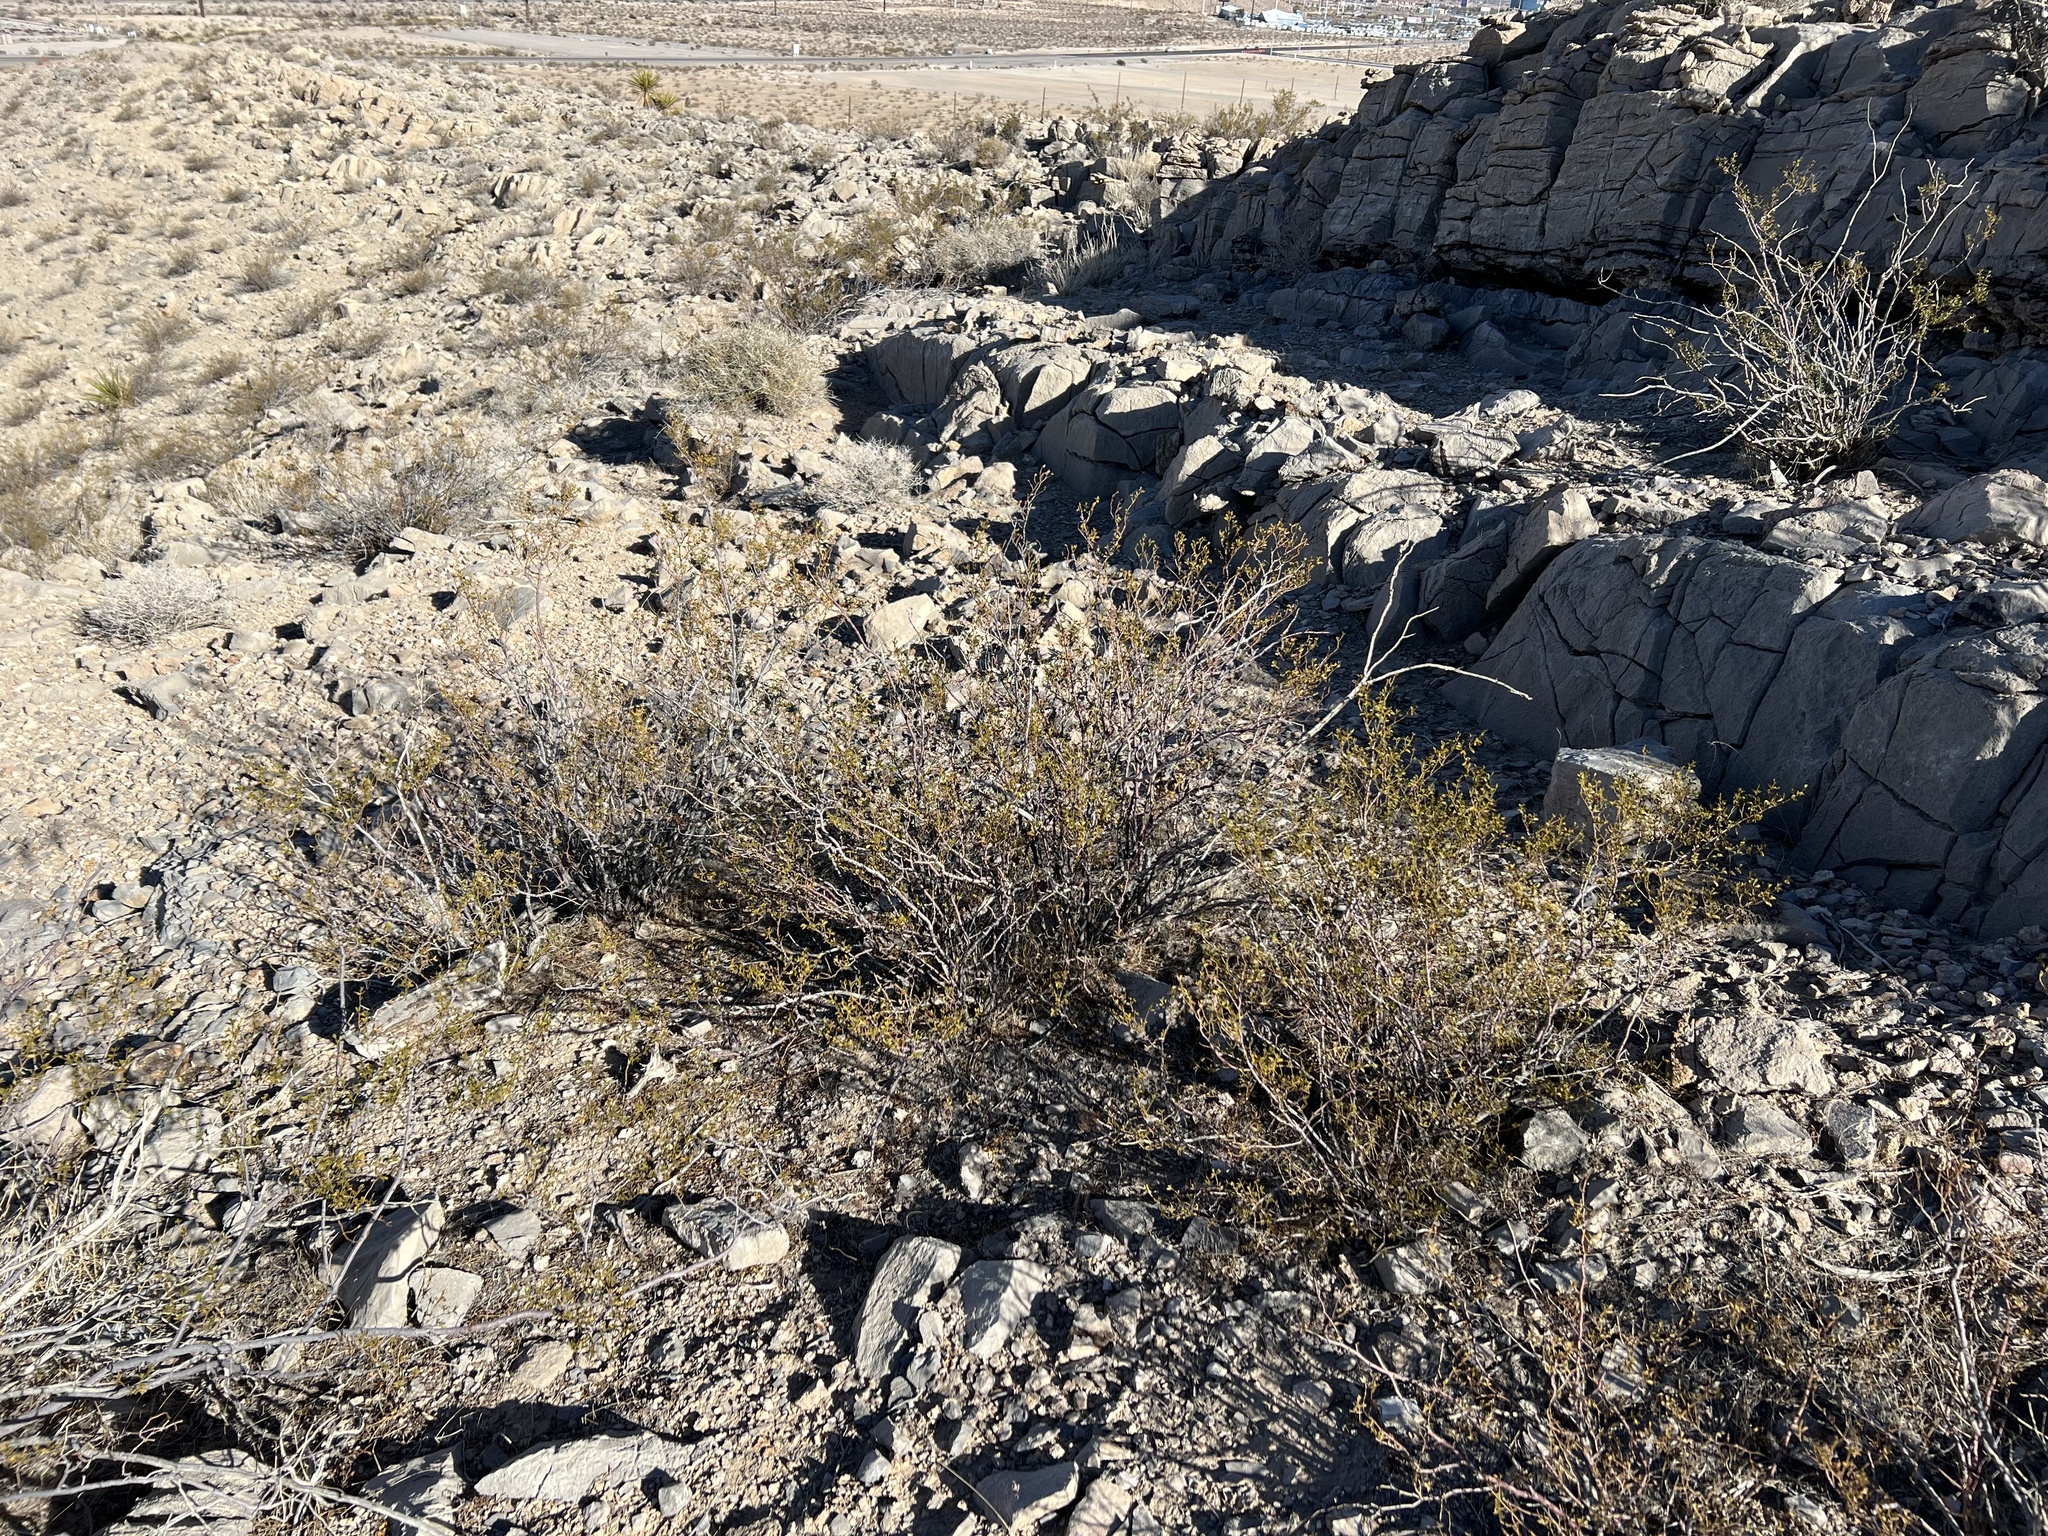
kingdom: Plantae
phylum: Tracheophyta
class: Magnoliopsida
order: Zygophyllales
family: Zygophyllaceae
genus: Larrea
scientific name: Larrea tridentata
